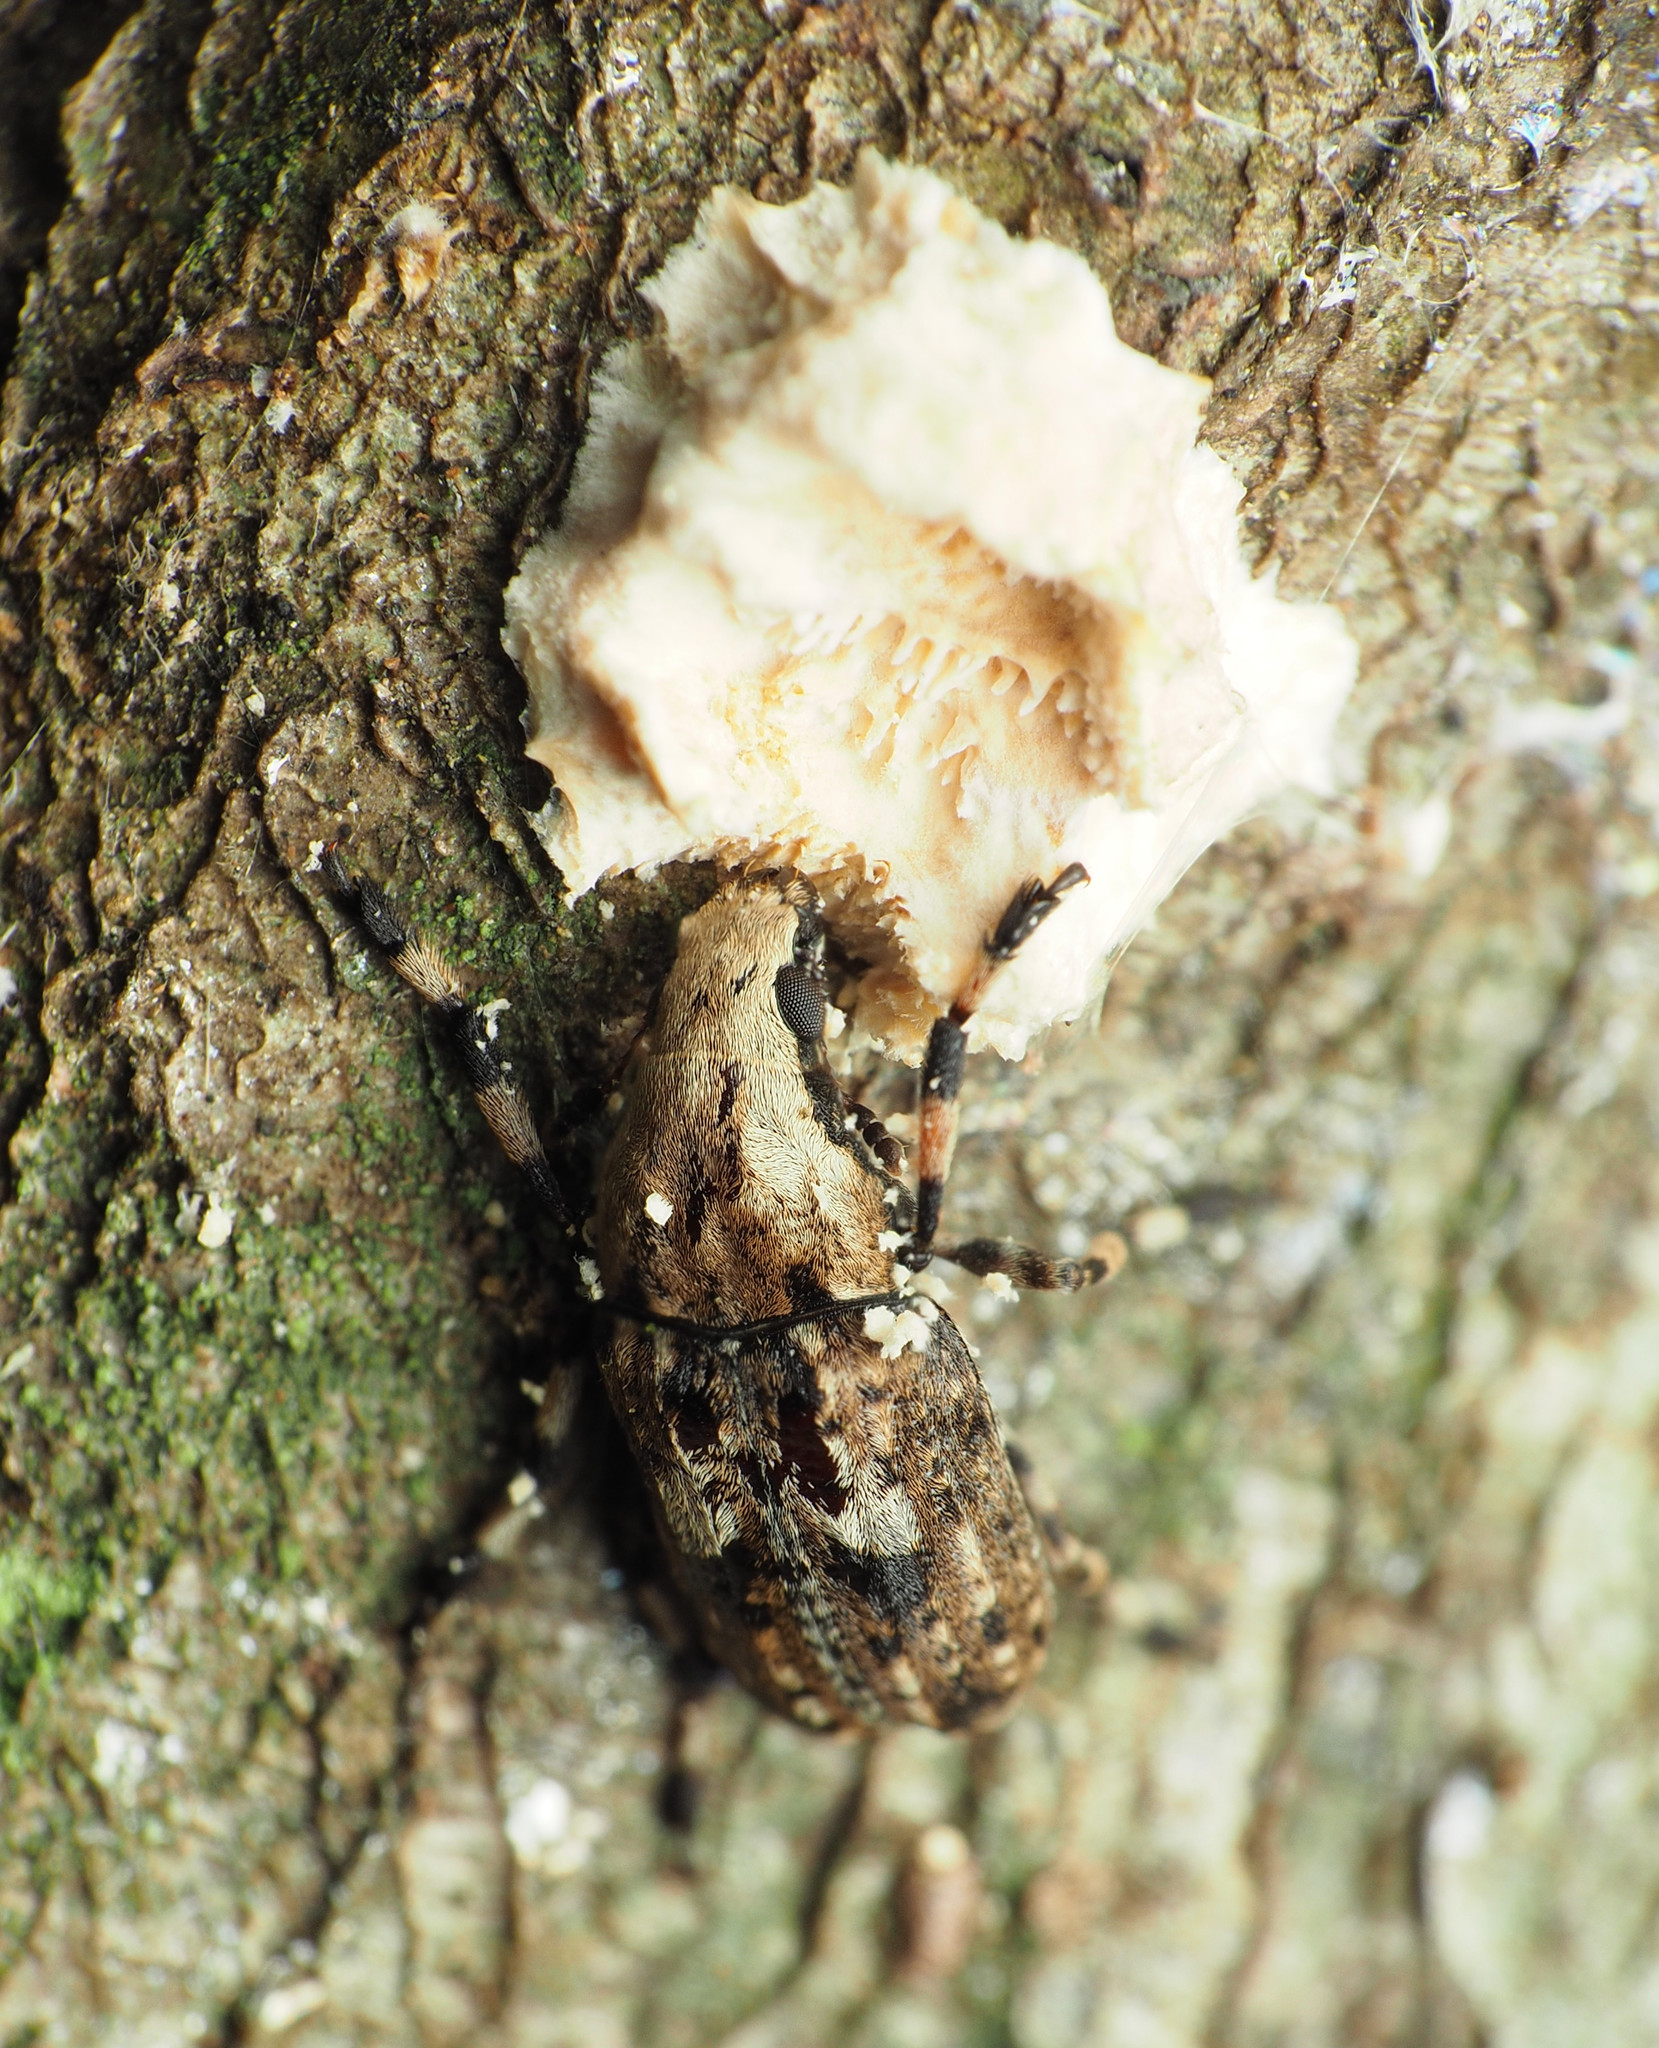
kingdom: Animalia
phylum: Arthropoda
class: Insecta
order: Coleoptera
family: Anthribidae
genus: Euparius
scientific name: Euparius marmoreus
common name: Marbled fungus weevil
